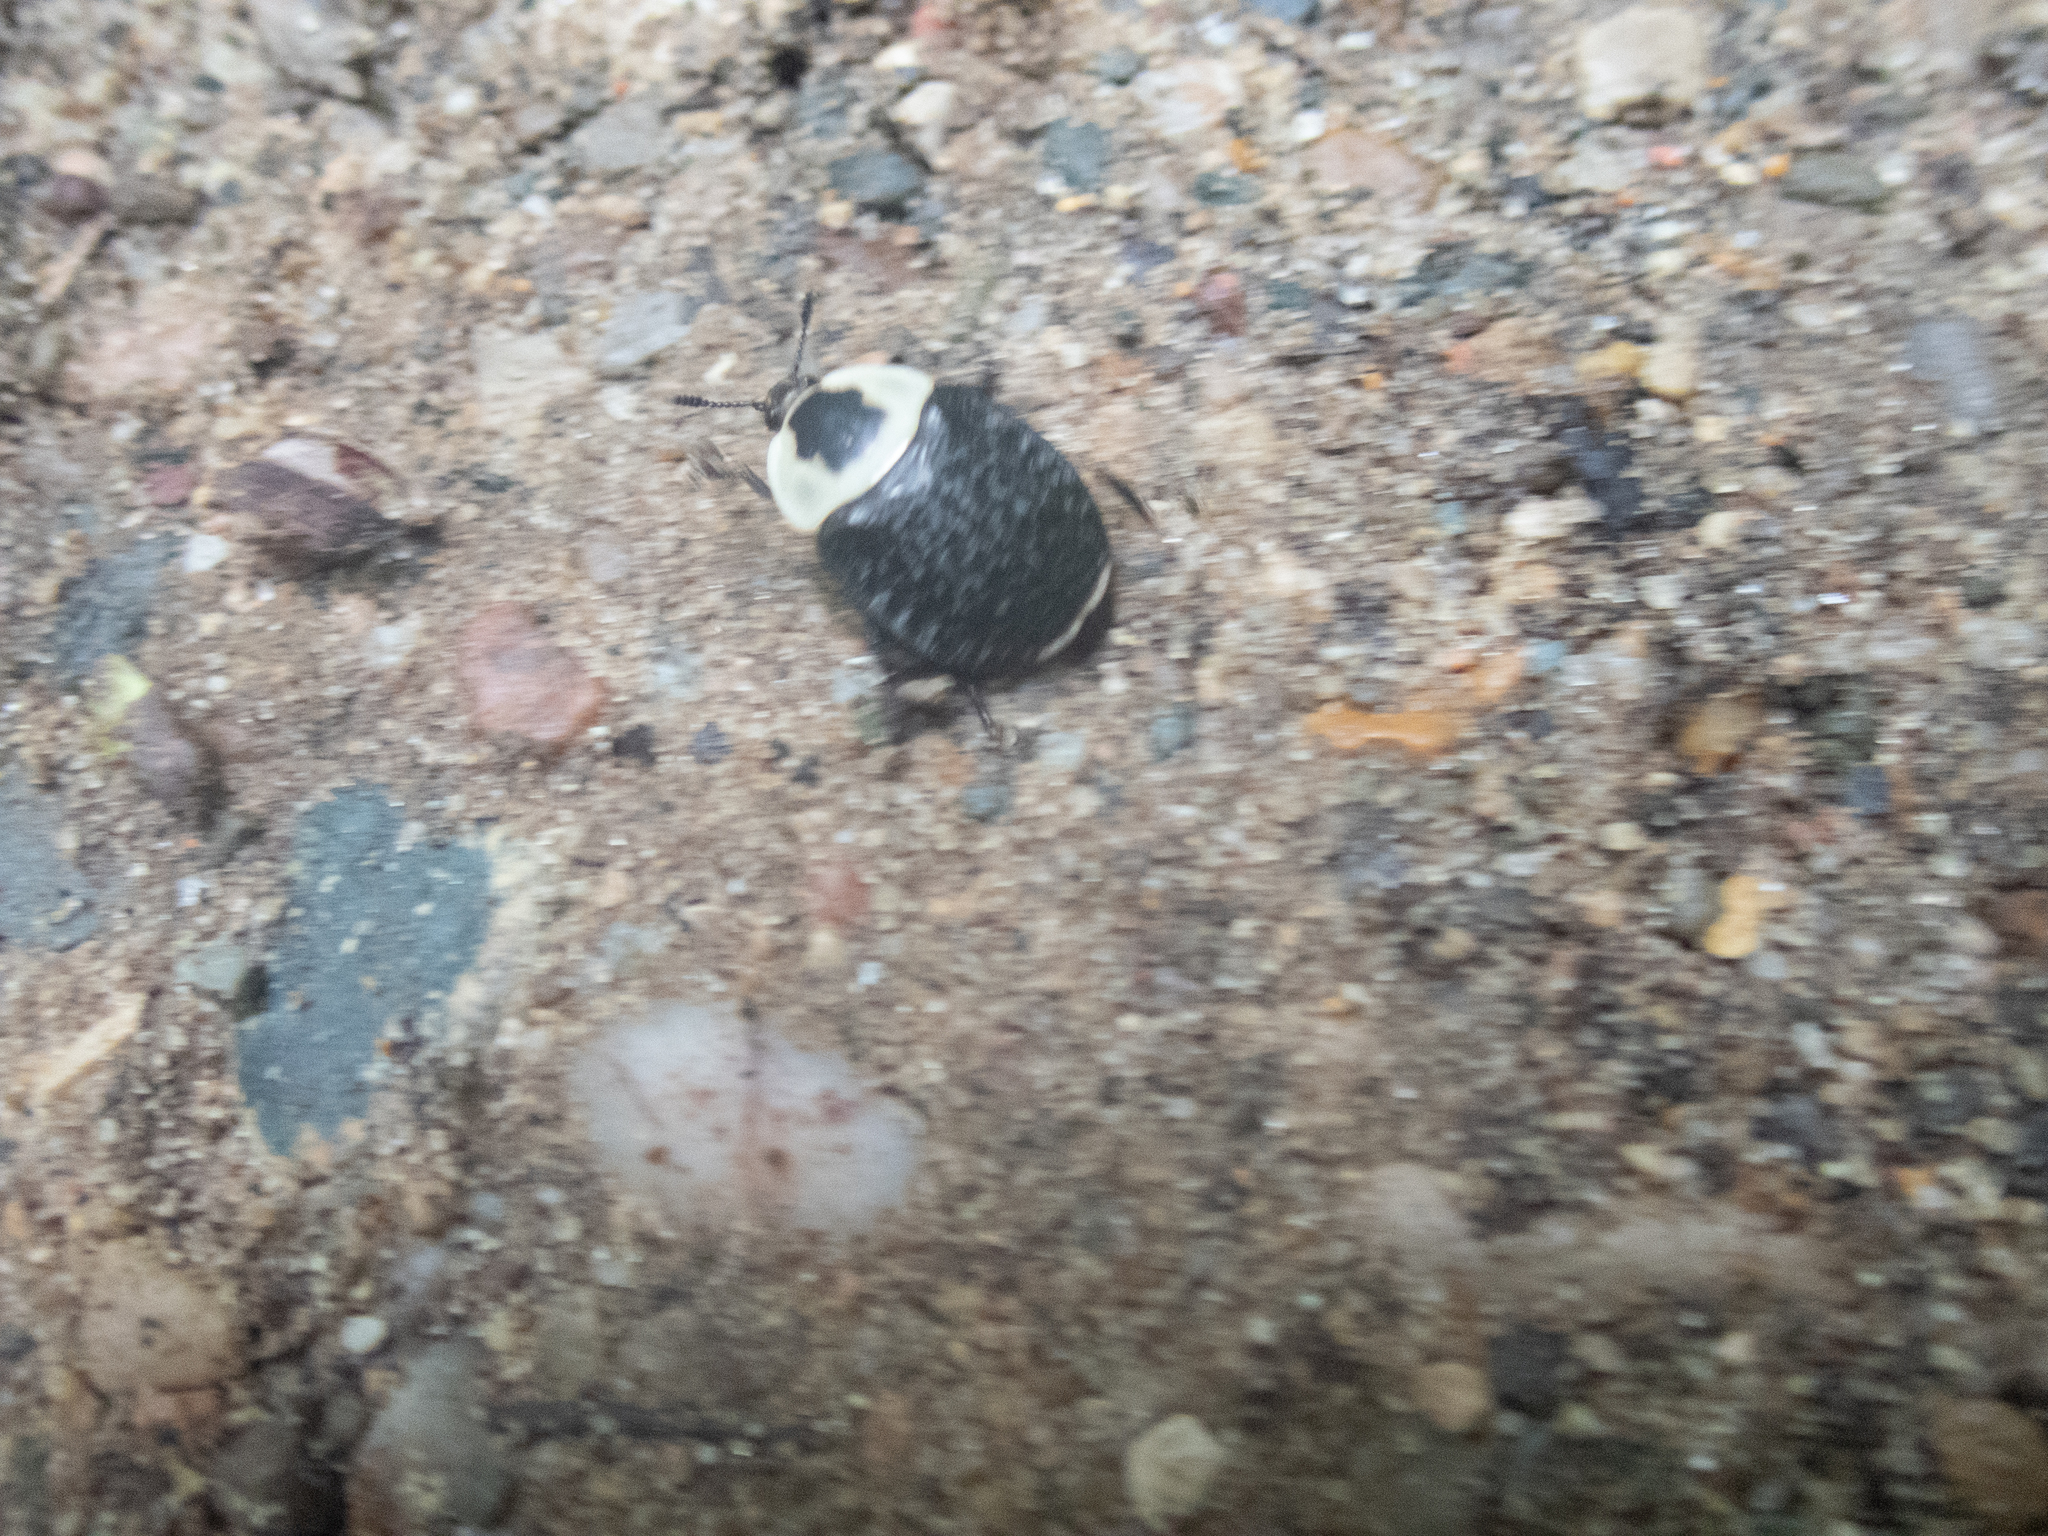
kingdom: Animalia
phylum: Arthropoda
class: Insecta
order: Coleoptera
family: Staphylinidae
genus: Necrophila
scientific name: Necrophila americana
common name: American carrion beetle
